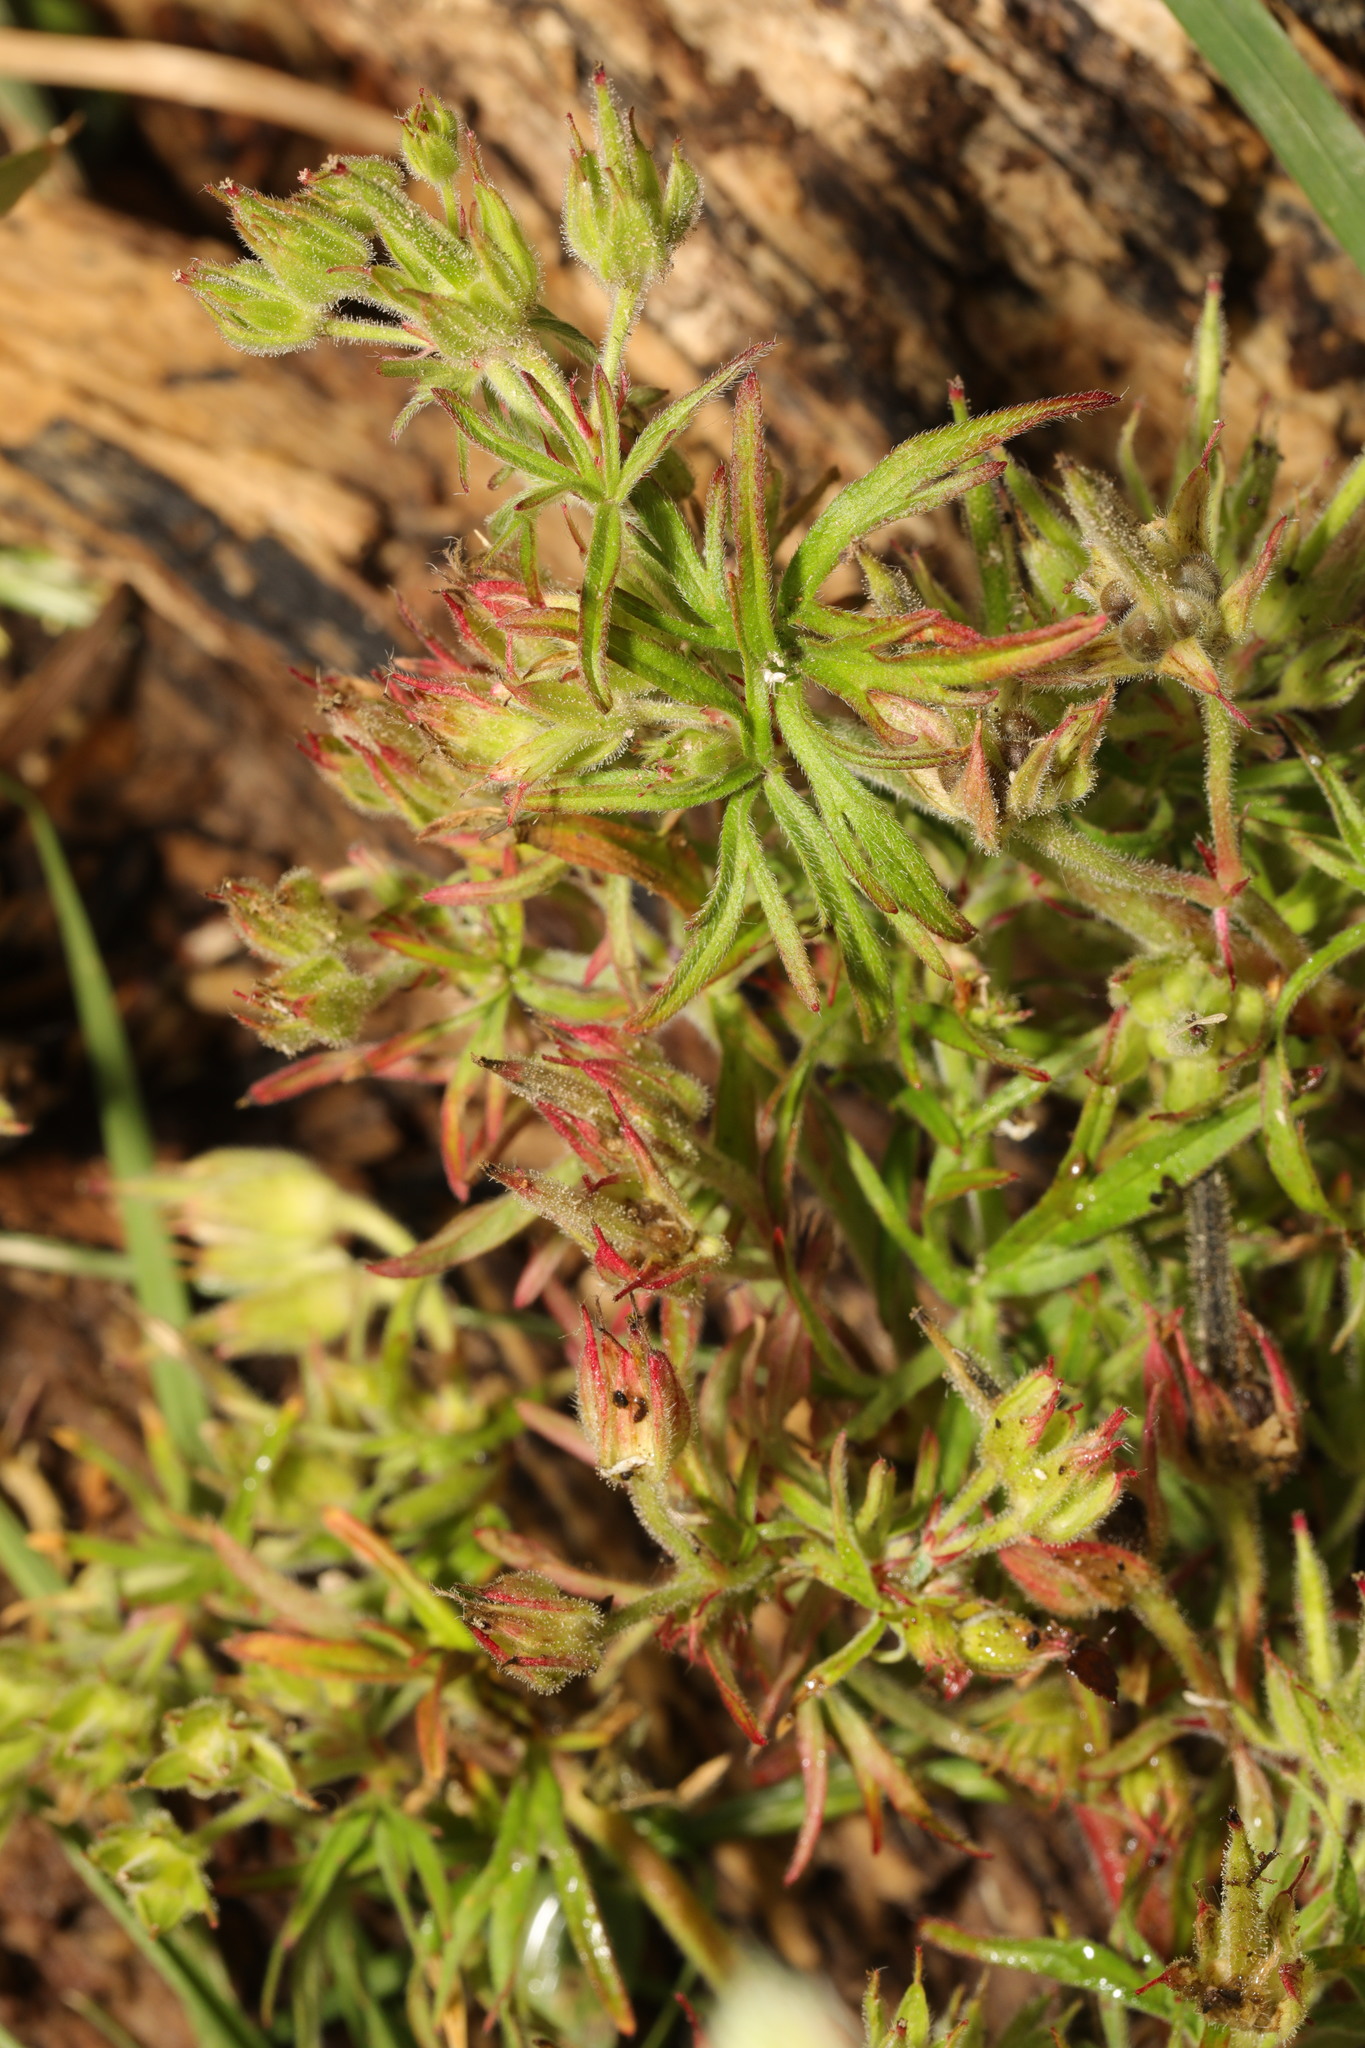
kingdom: Plantae
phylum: Tracheophyta
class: Magnoliopsida
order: Geraniales
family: Geraniaceae
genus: Geranium
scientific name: Geranium dissectum
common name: Cut-leaved crane's-bill
